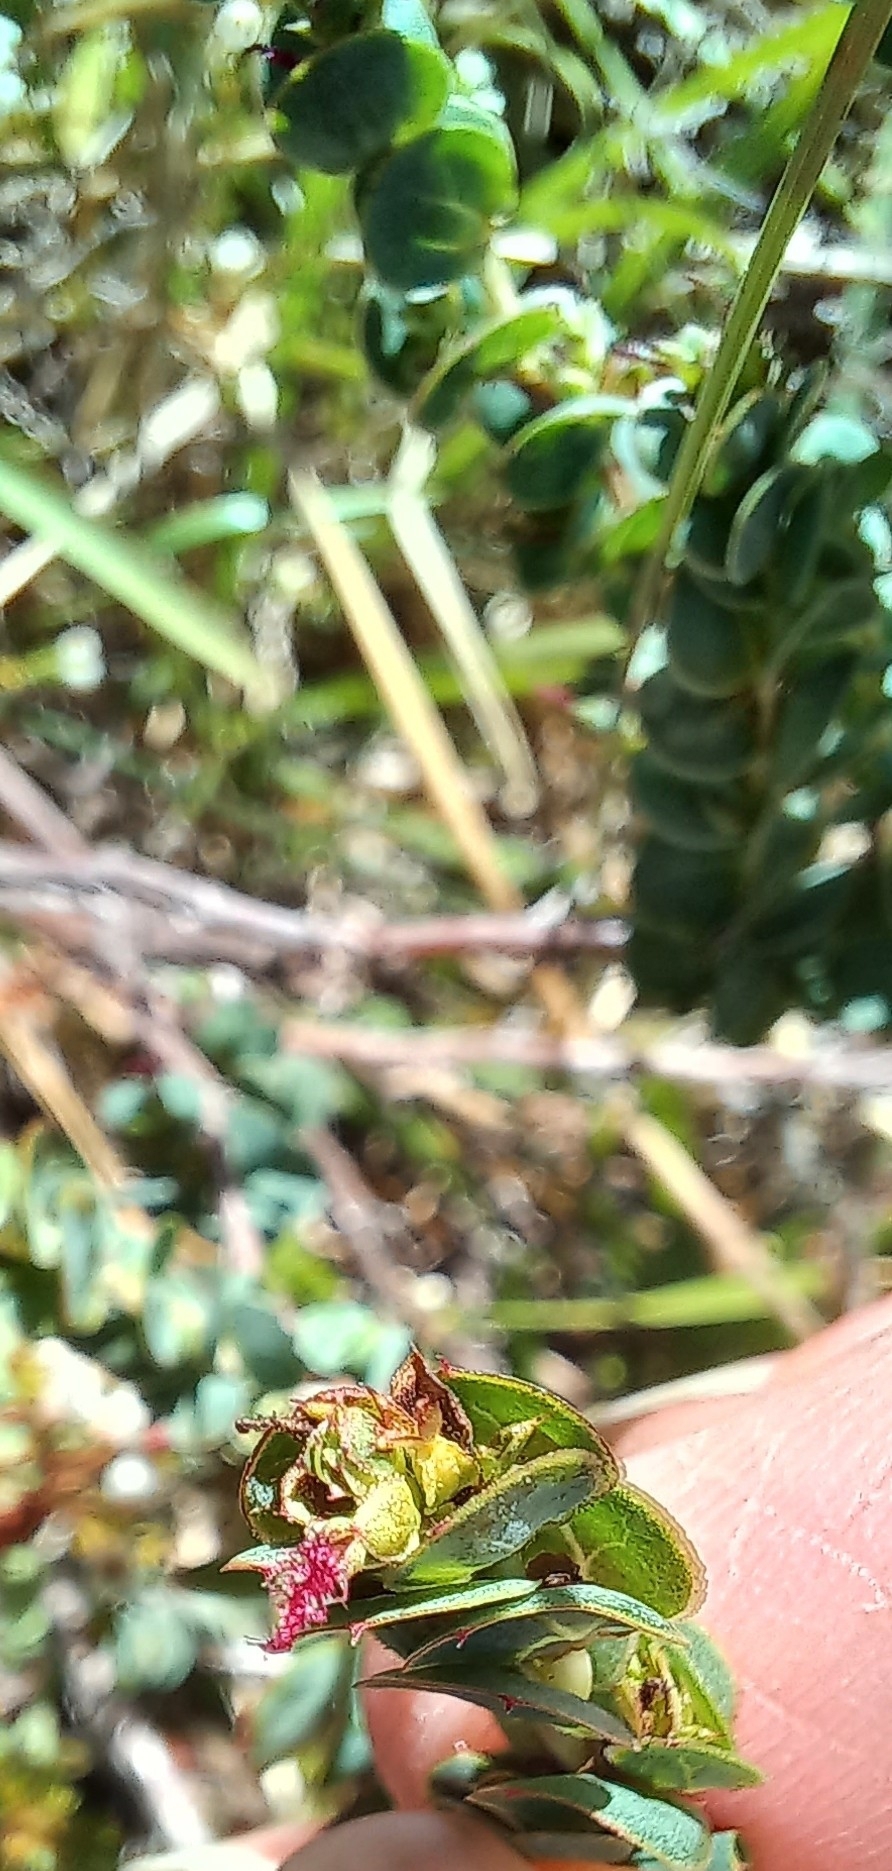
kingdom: Plantae
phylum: Tracheophyta
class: Magnoliopsida
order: Rosales
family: Rosaceae
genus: Cliffortia
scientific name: Cliffortia phyllanthoides
